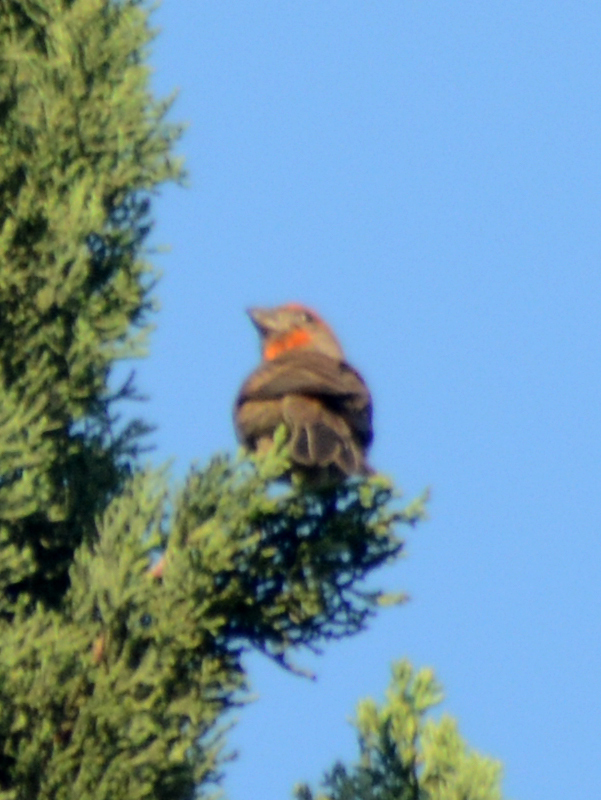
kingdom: Animalia
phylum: Chordata
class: Aves
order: Passeriformes
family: Fringillidae
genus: Haemorhous
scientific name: Haemorhous mexicanus
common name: House finch
